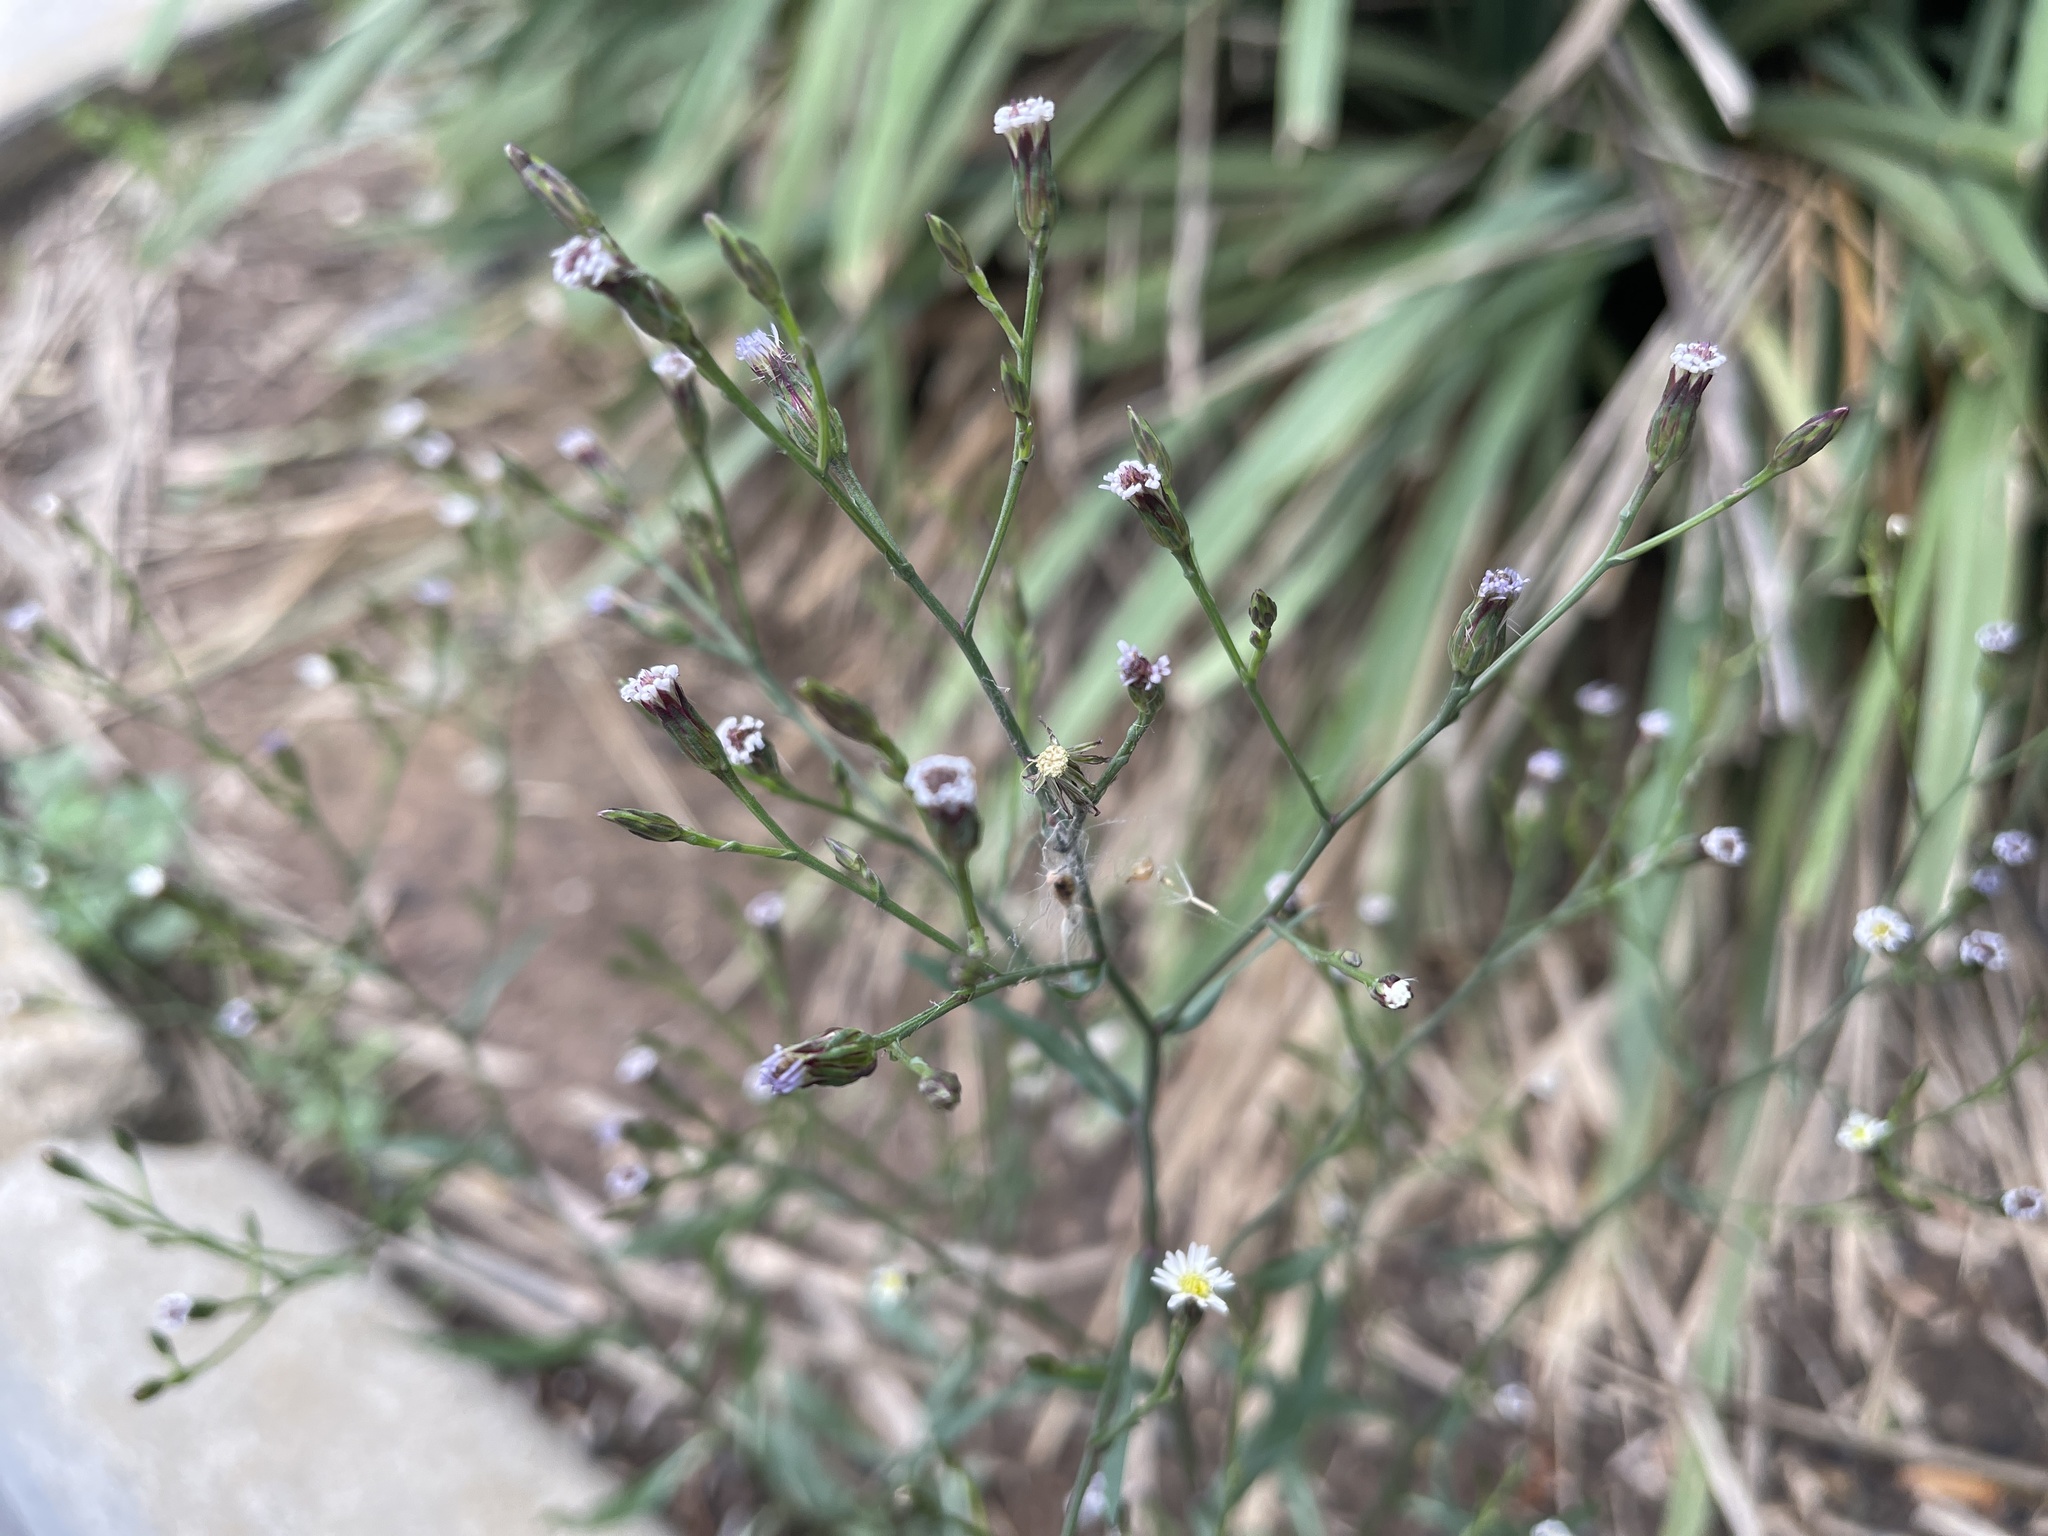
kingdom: Plantae
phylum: Tracheophyta
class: Magnoliopsida
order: Asterales
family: Asteraceae
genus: Symphyotrichum
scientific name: Symphyotrichum subulatum
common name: Annual saltmarsh aster
